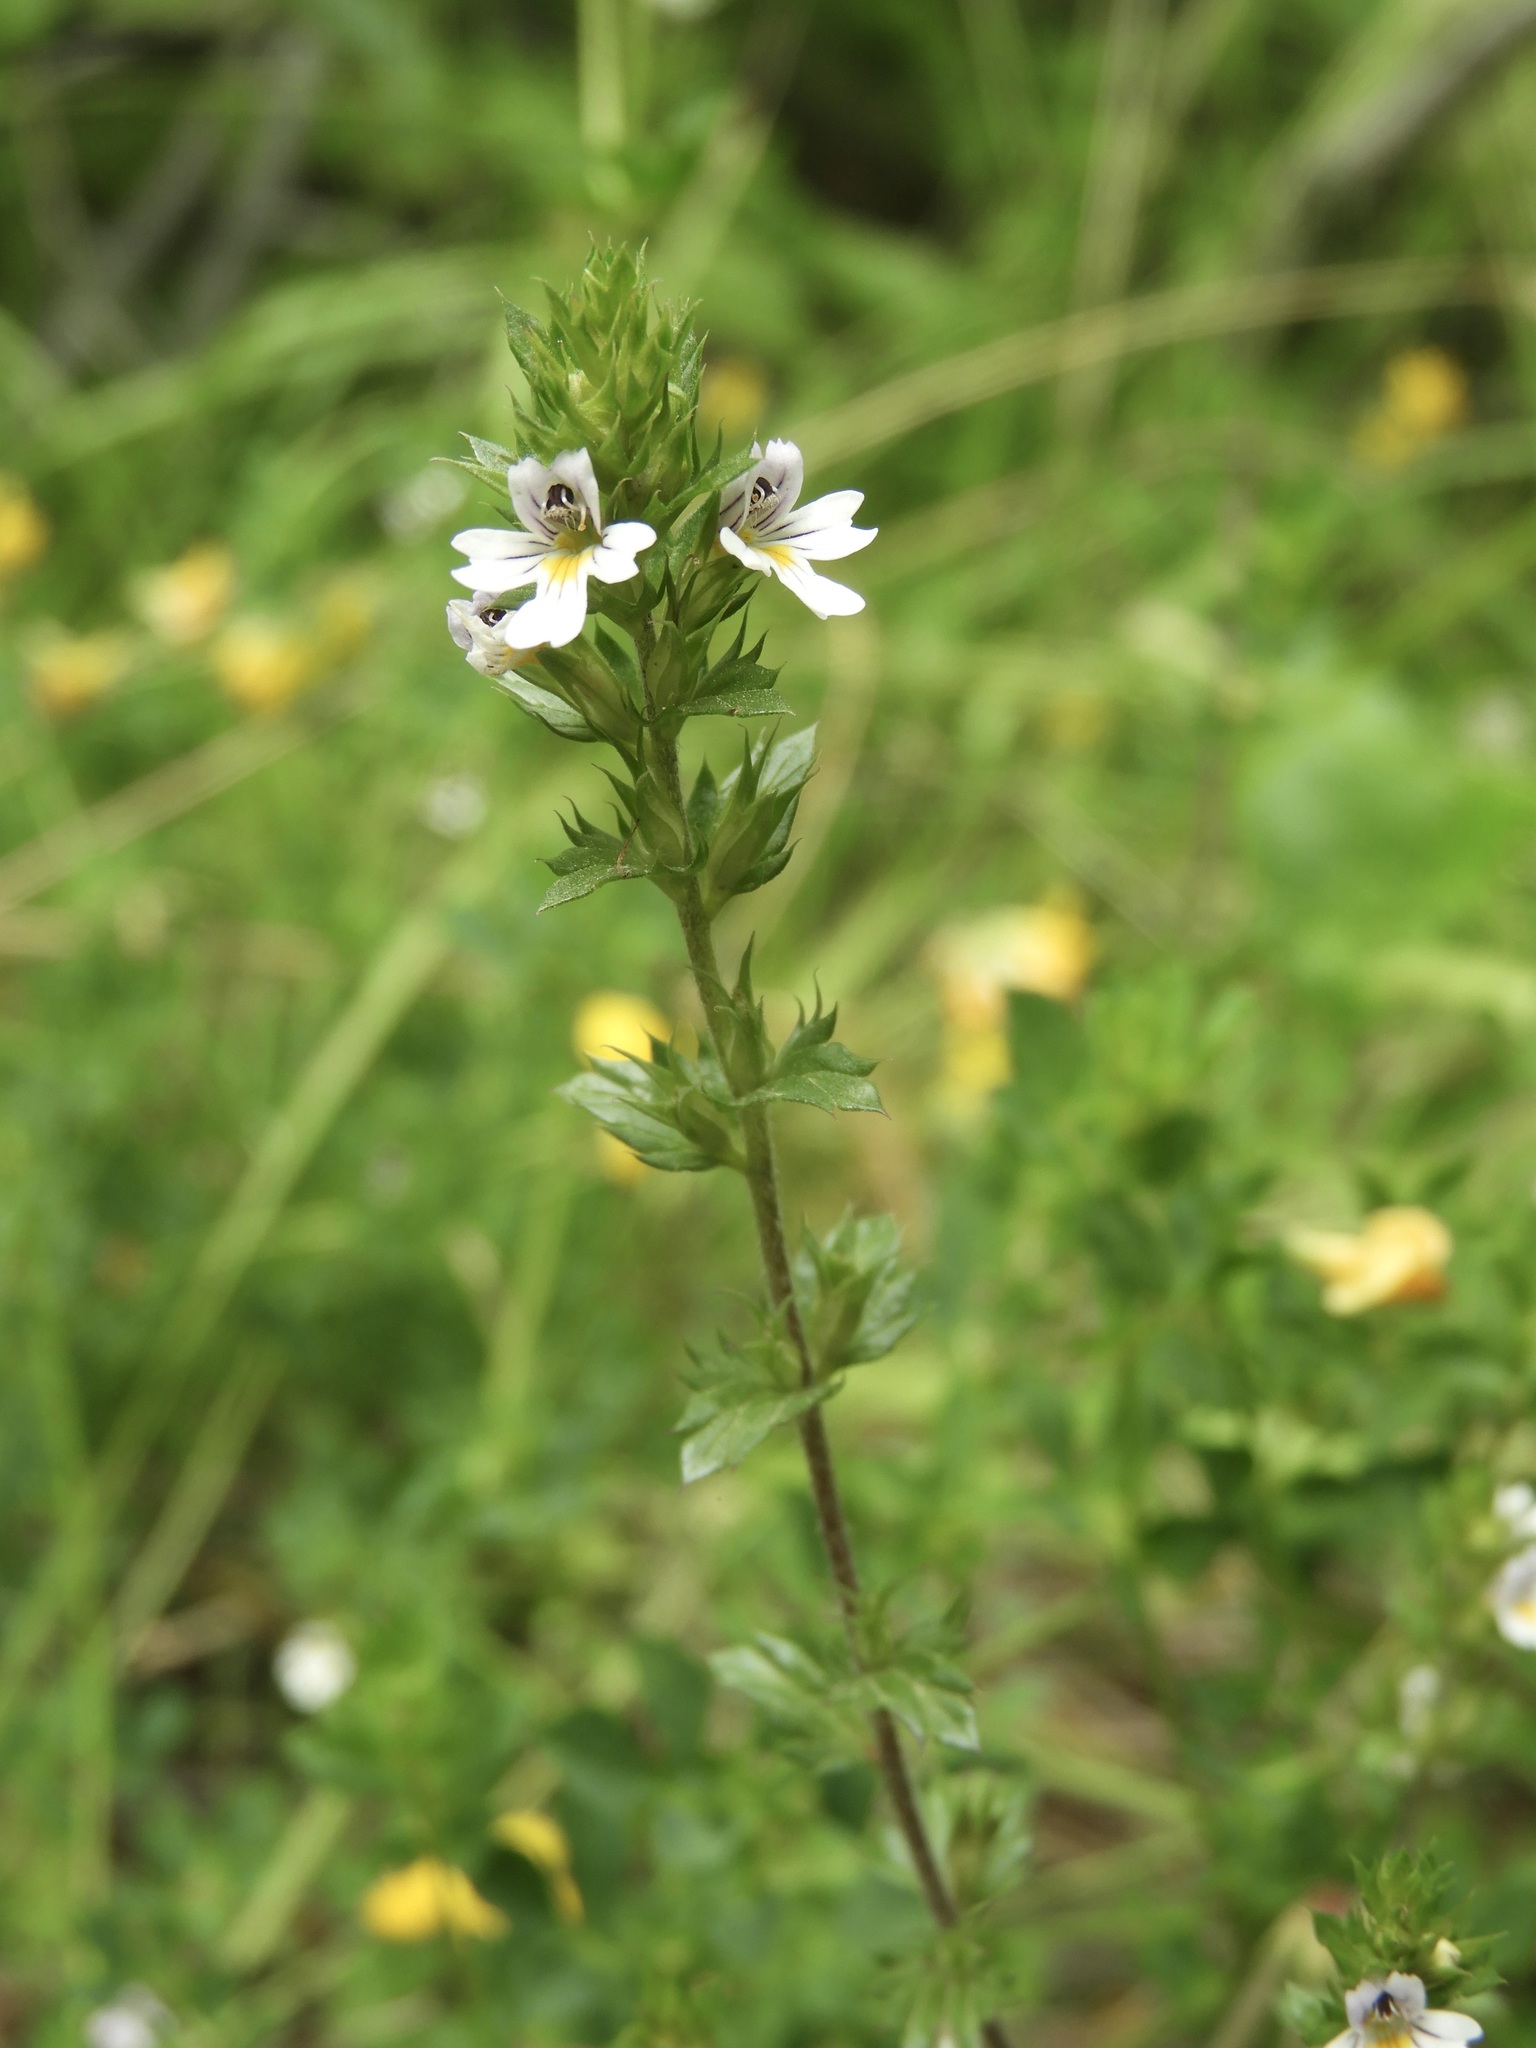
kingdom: Plantae
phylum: Tracheophyta
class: Magnoliopsida
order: Lamiales
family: Orobanchaceae
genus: Euphrasia
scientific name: Euphrasia nemorosa
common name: Common eyebright
